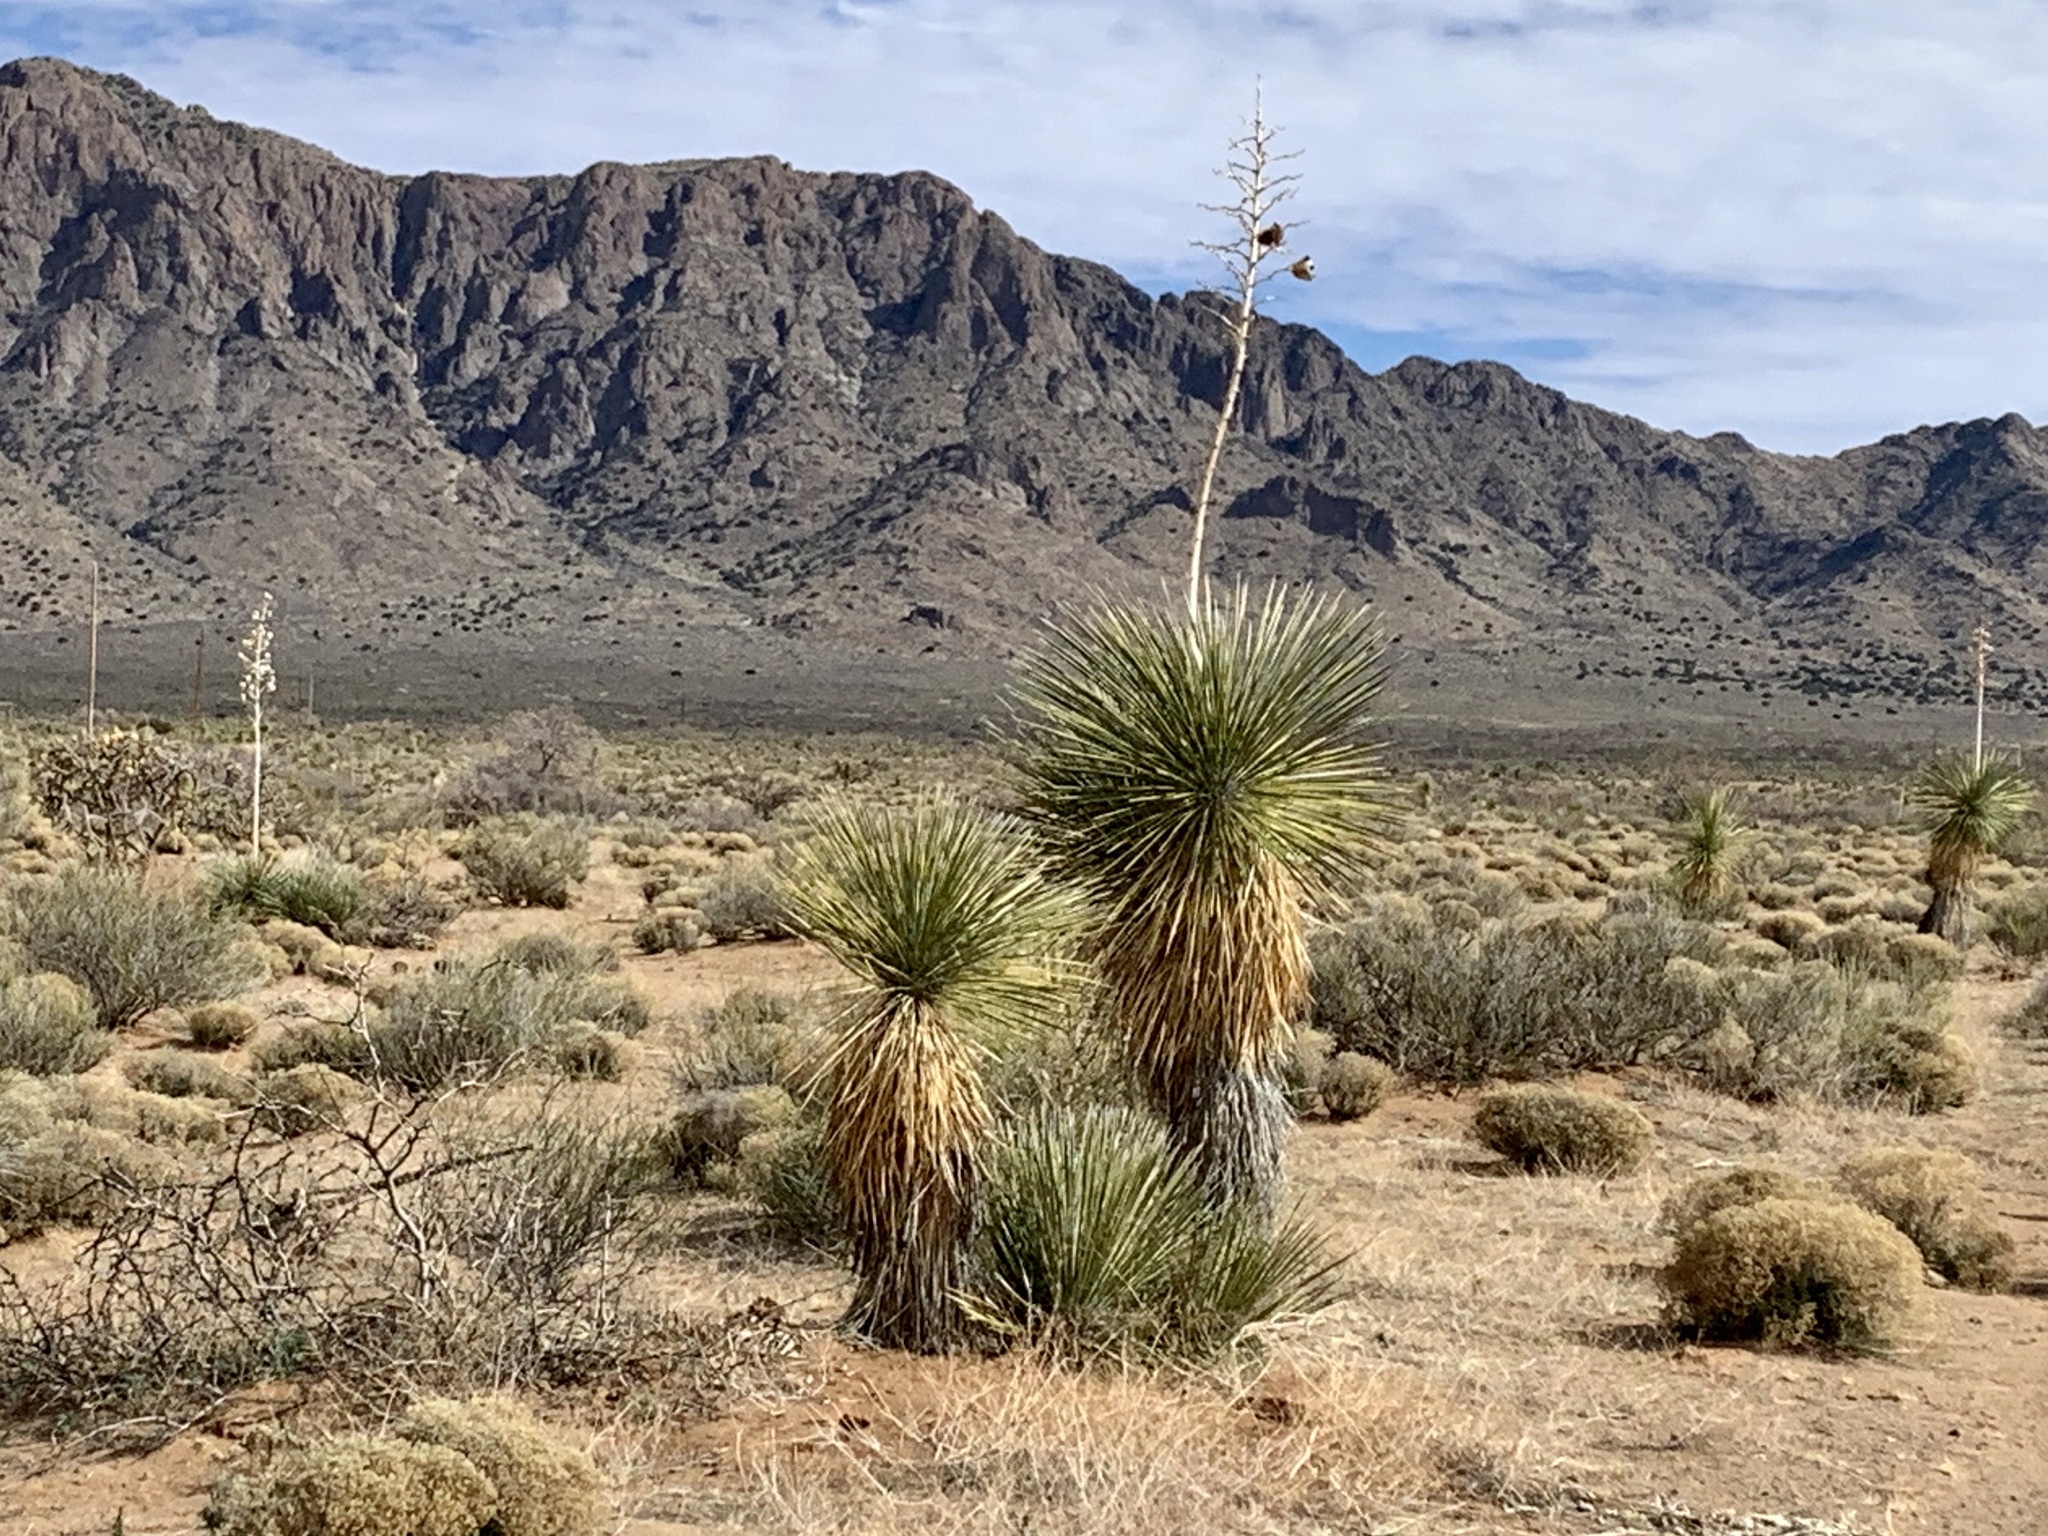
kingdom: Plantae
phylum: Tracheophyta
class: Liliopsida
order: Asparagales
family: Asparagaceae
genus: Yucca
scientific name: Yucca elata
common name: Palmella
